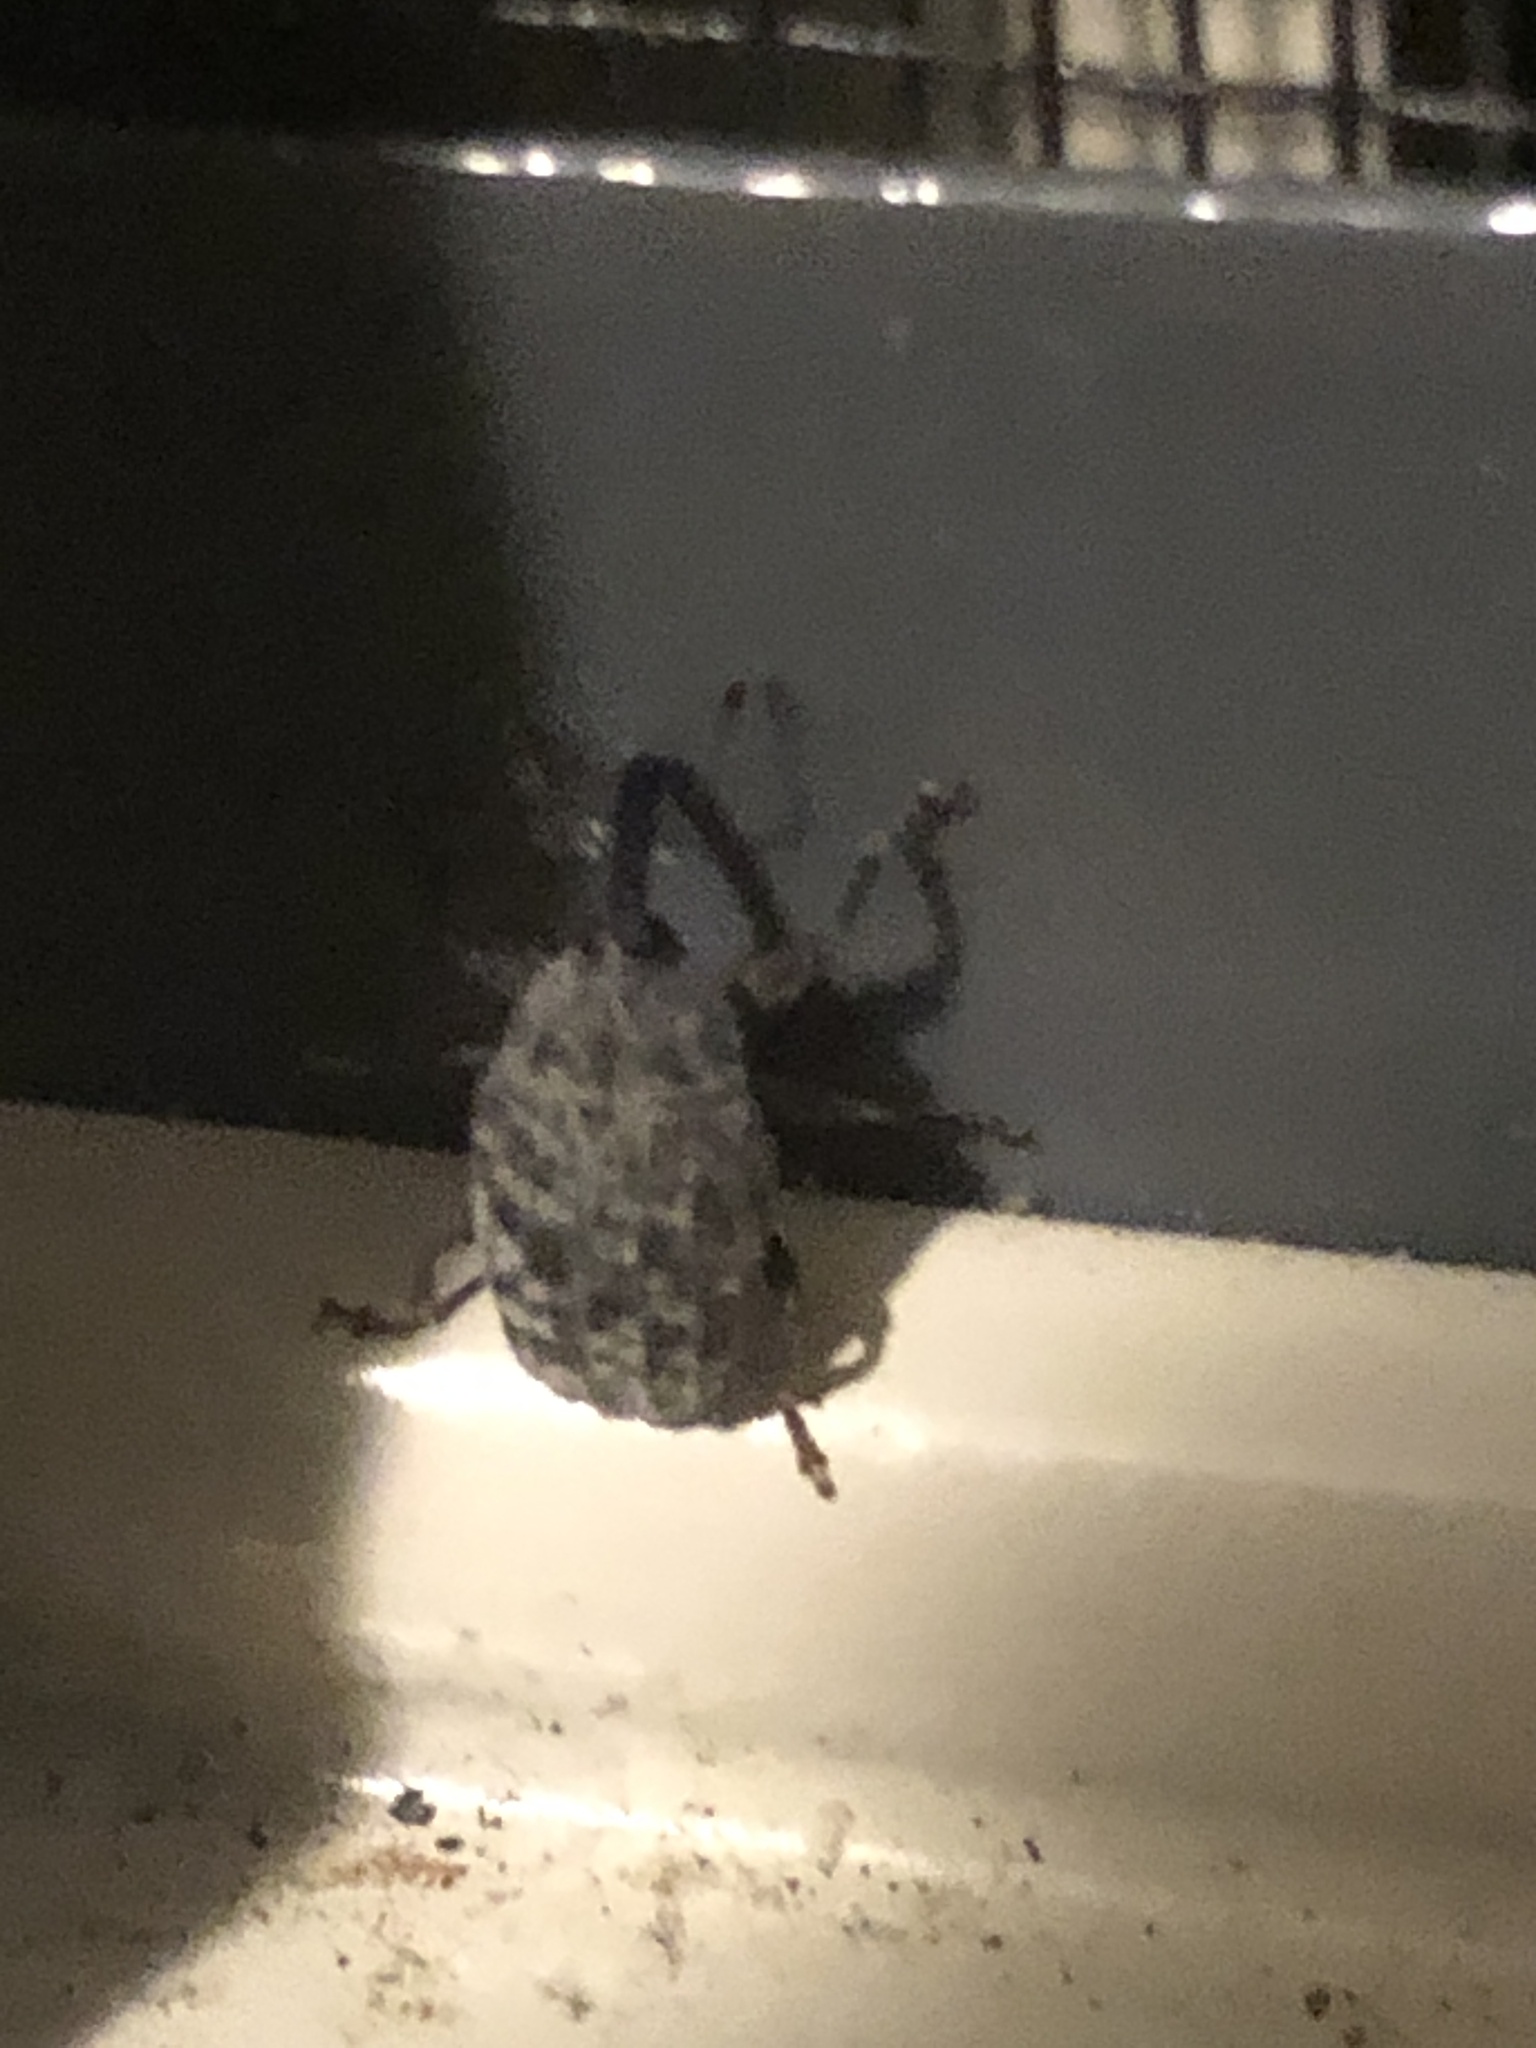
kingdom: Animalia
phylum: Arthropoda
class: Insecta
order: Coleoptera
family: Curculionidae
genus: Rhyssomatus
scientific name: Rhyssomatus lineaticollis
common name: Milkweed stem weevil
